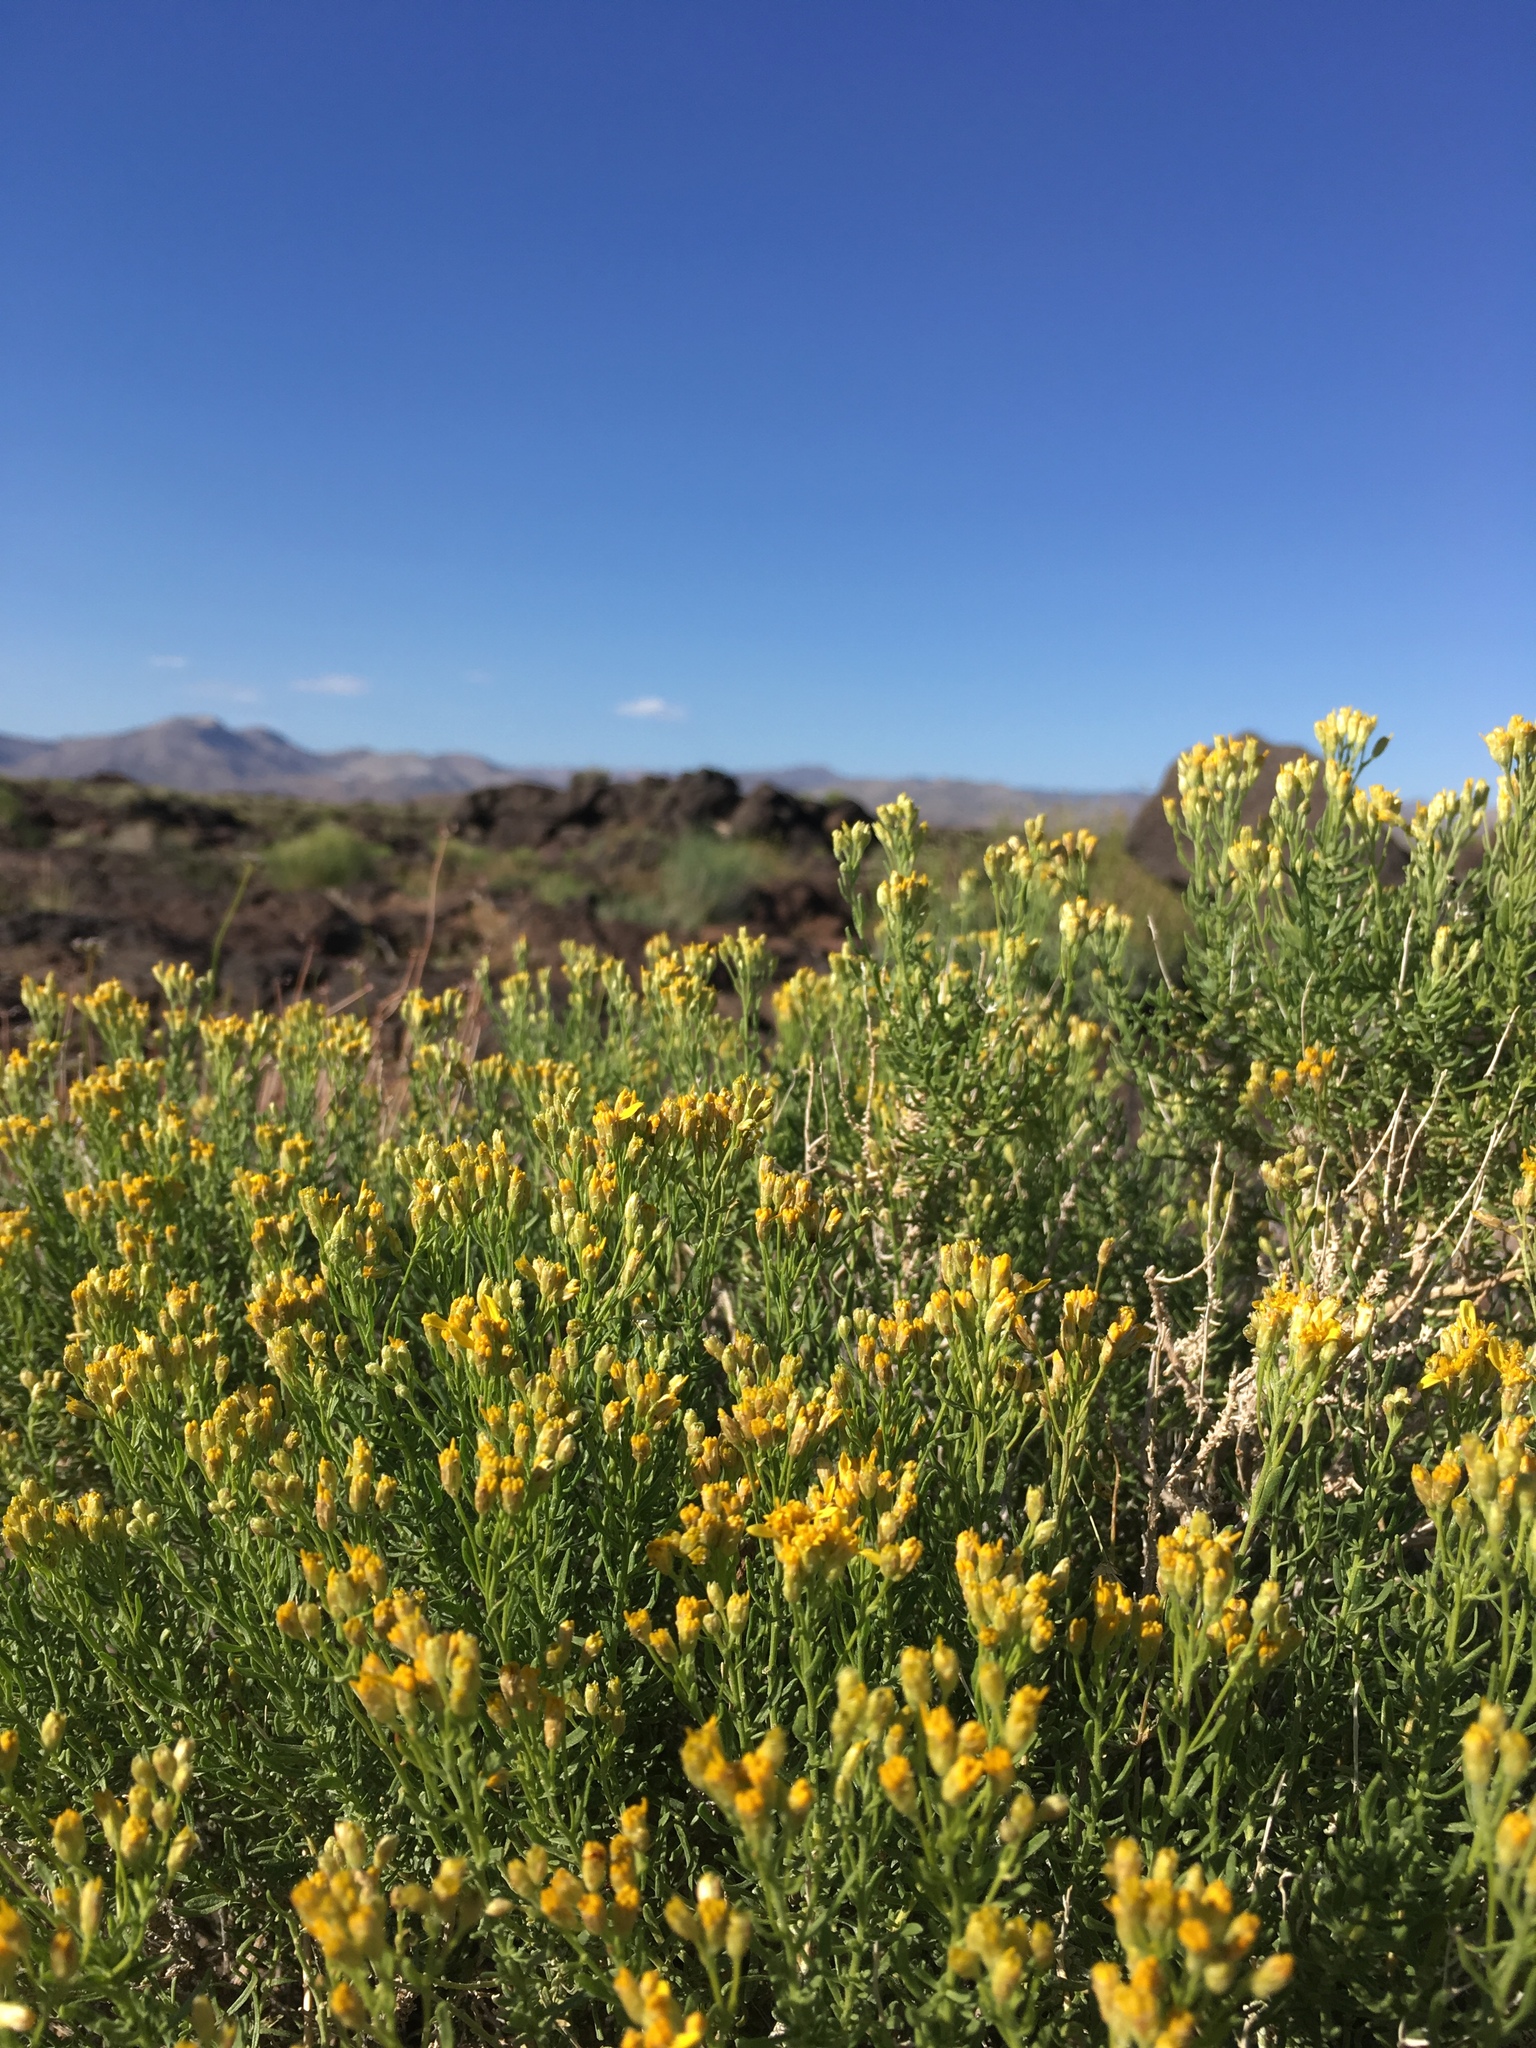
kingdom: Plantae
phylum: Tracheophyta
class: Magnoliopsida
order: Asterales
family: Asteraceae
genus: Ericameria
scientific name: Ericameria cooperi
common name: Cooper's goldenbush
